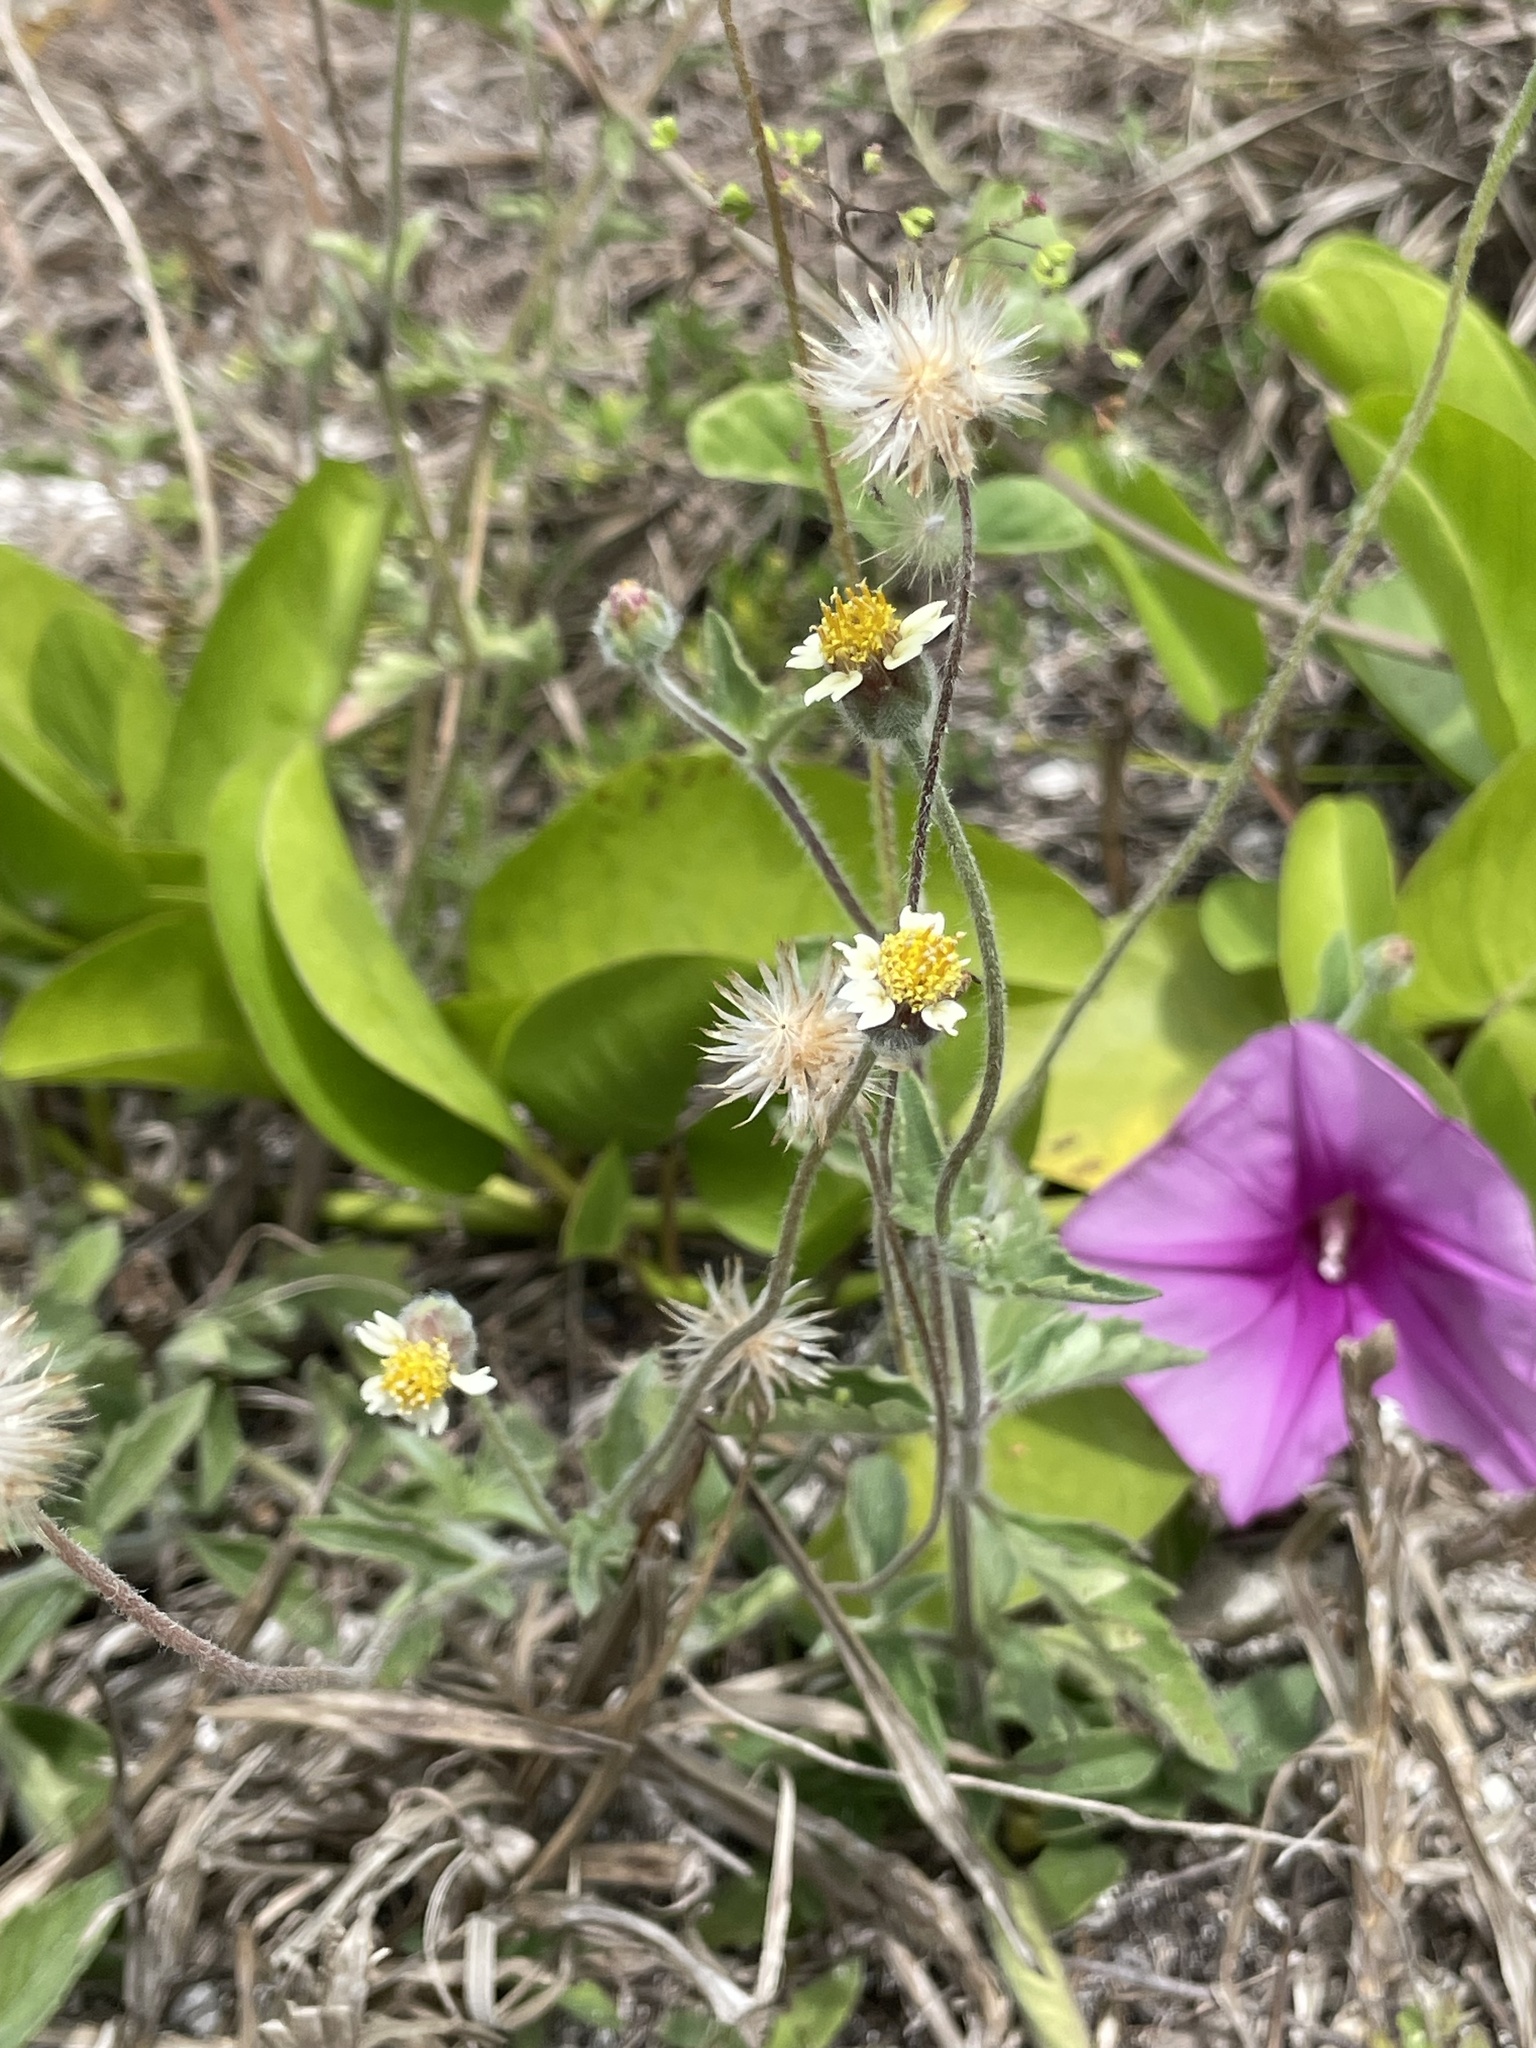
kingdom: Plantae
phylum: Tracheophyta
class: Magnoliopsida
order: Asterales
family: Asteraceae
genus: Tridax
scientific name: Tridax procumbens
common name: Coatbuttons
